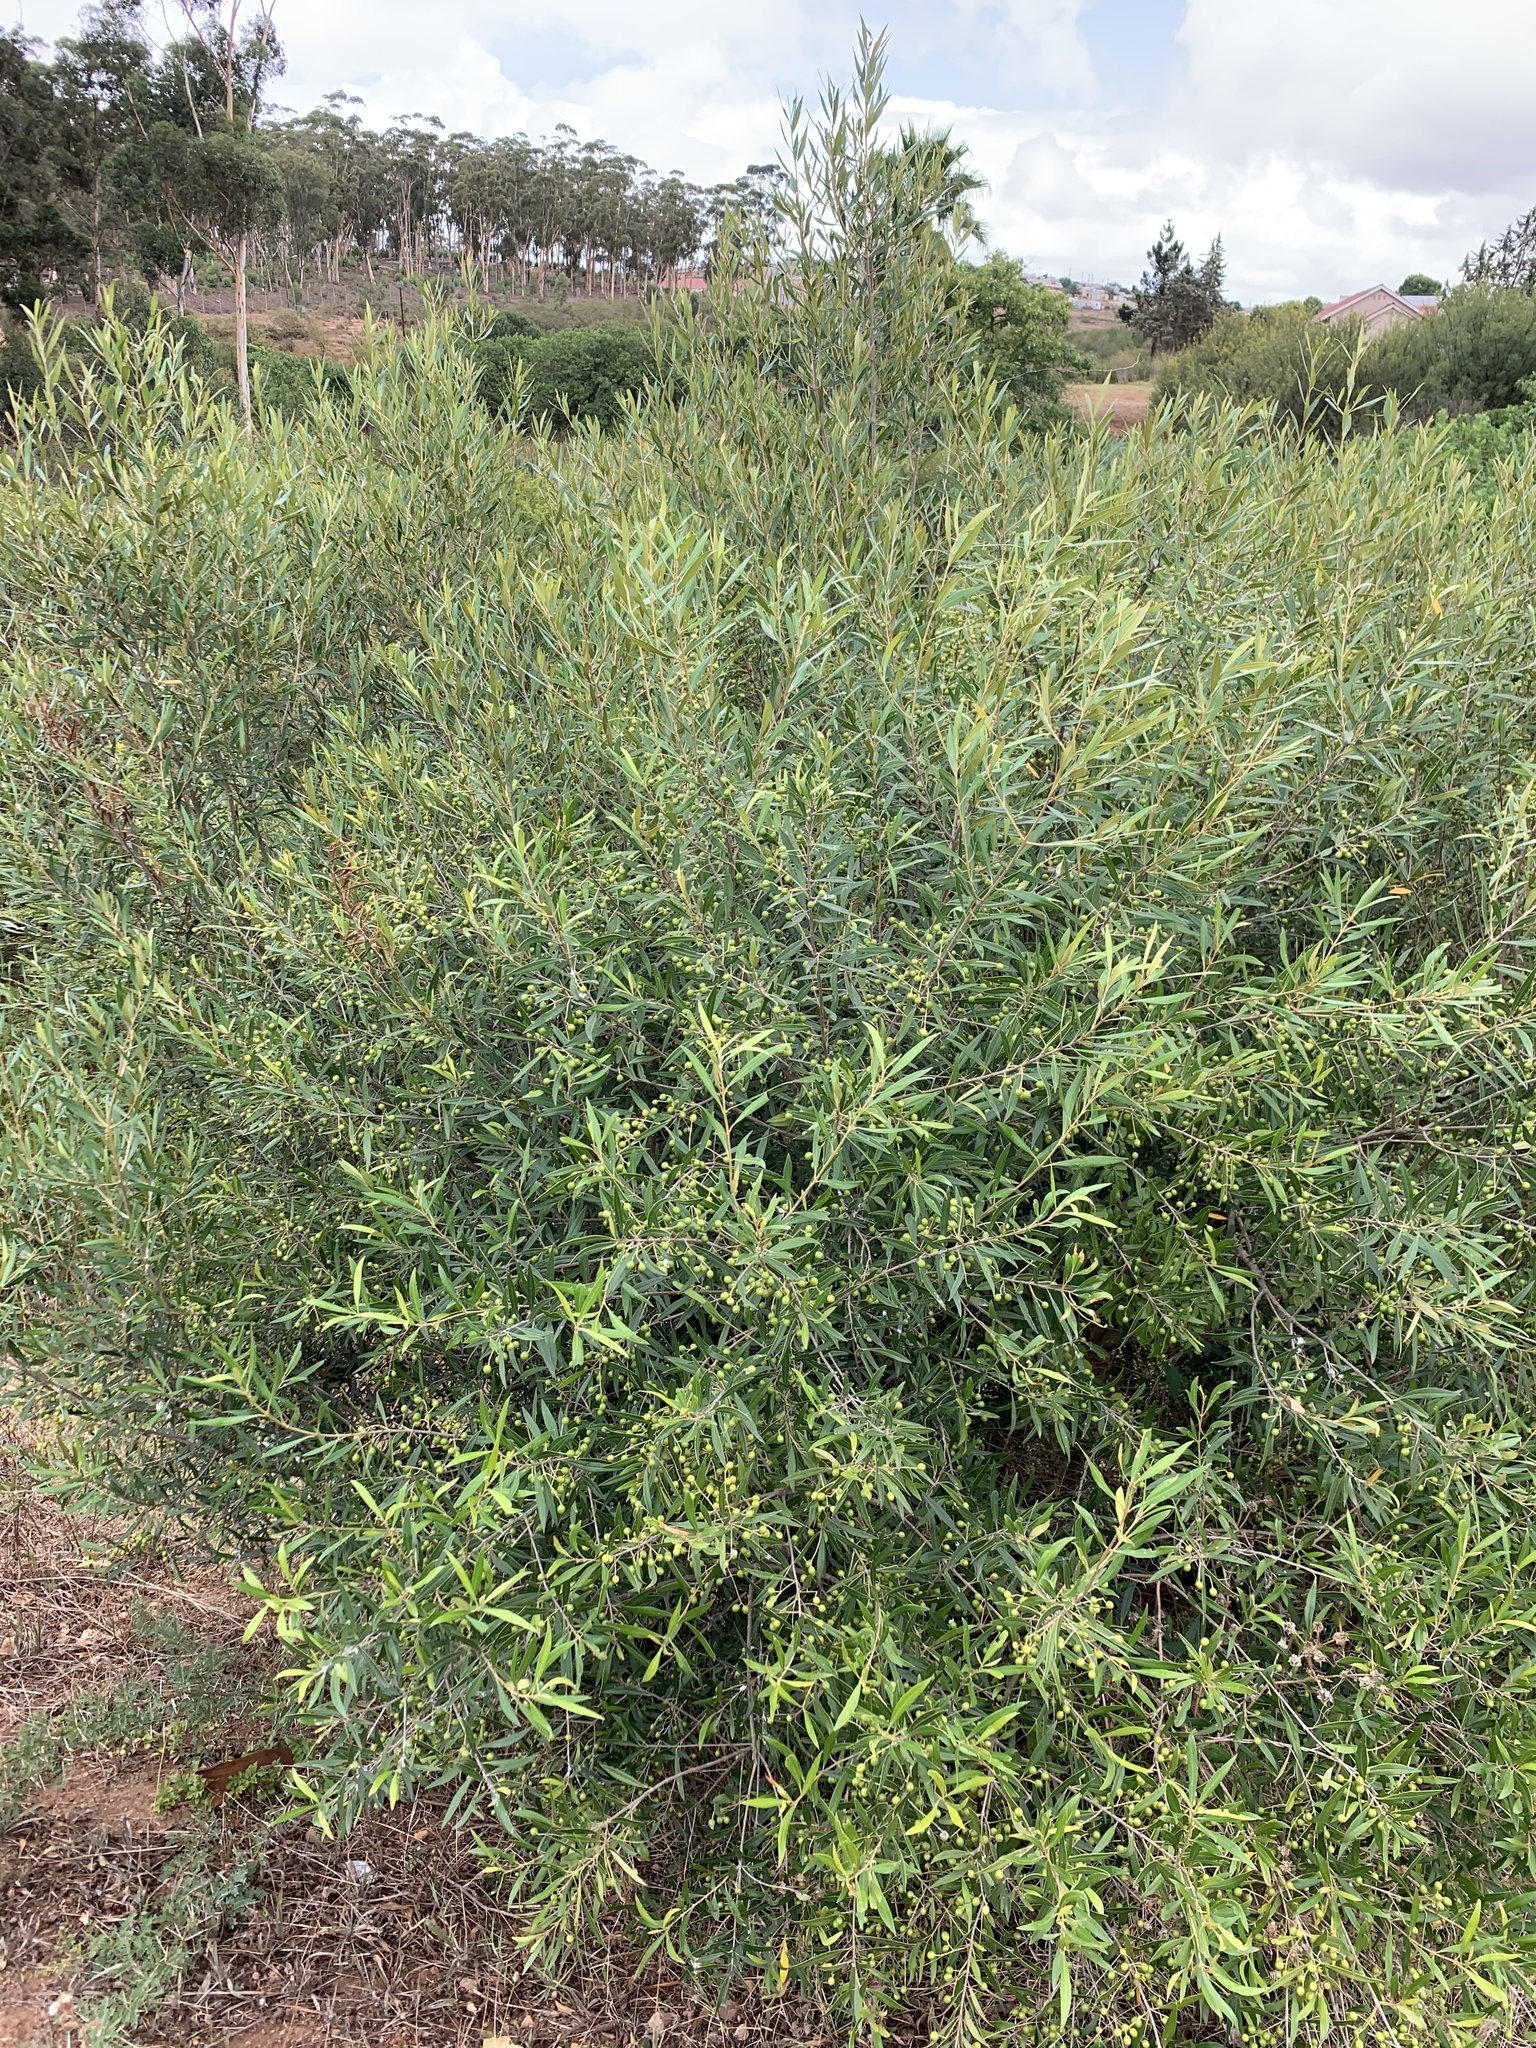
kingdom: Plantae
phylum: Tracheophyta
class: Magnoliopsida
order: Lamiales
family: Oleaceae
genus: Olea
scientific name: Olea europaea
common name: Olive
